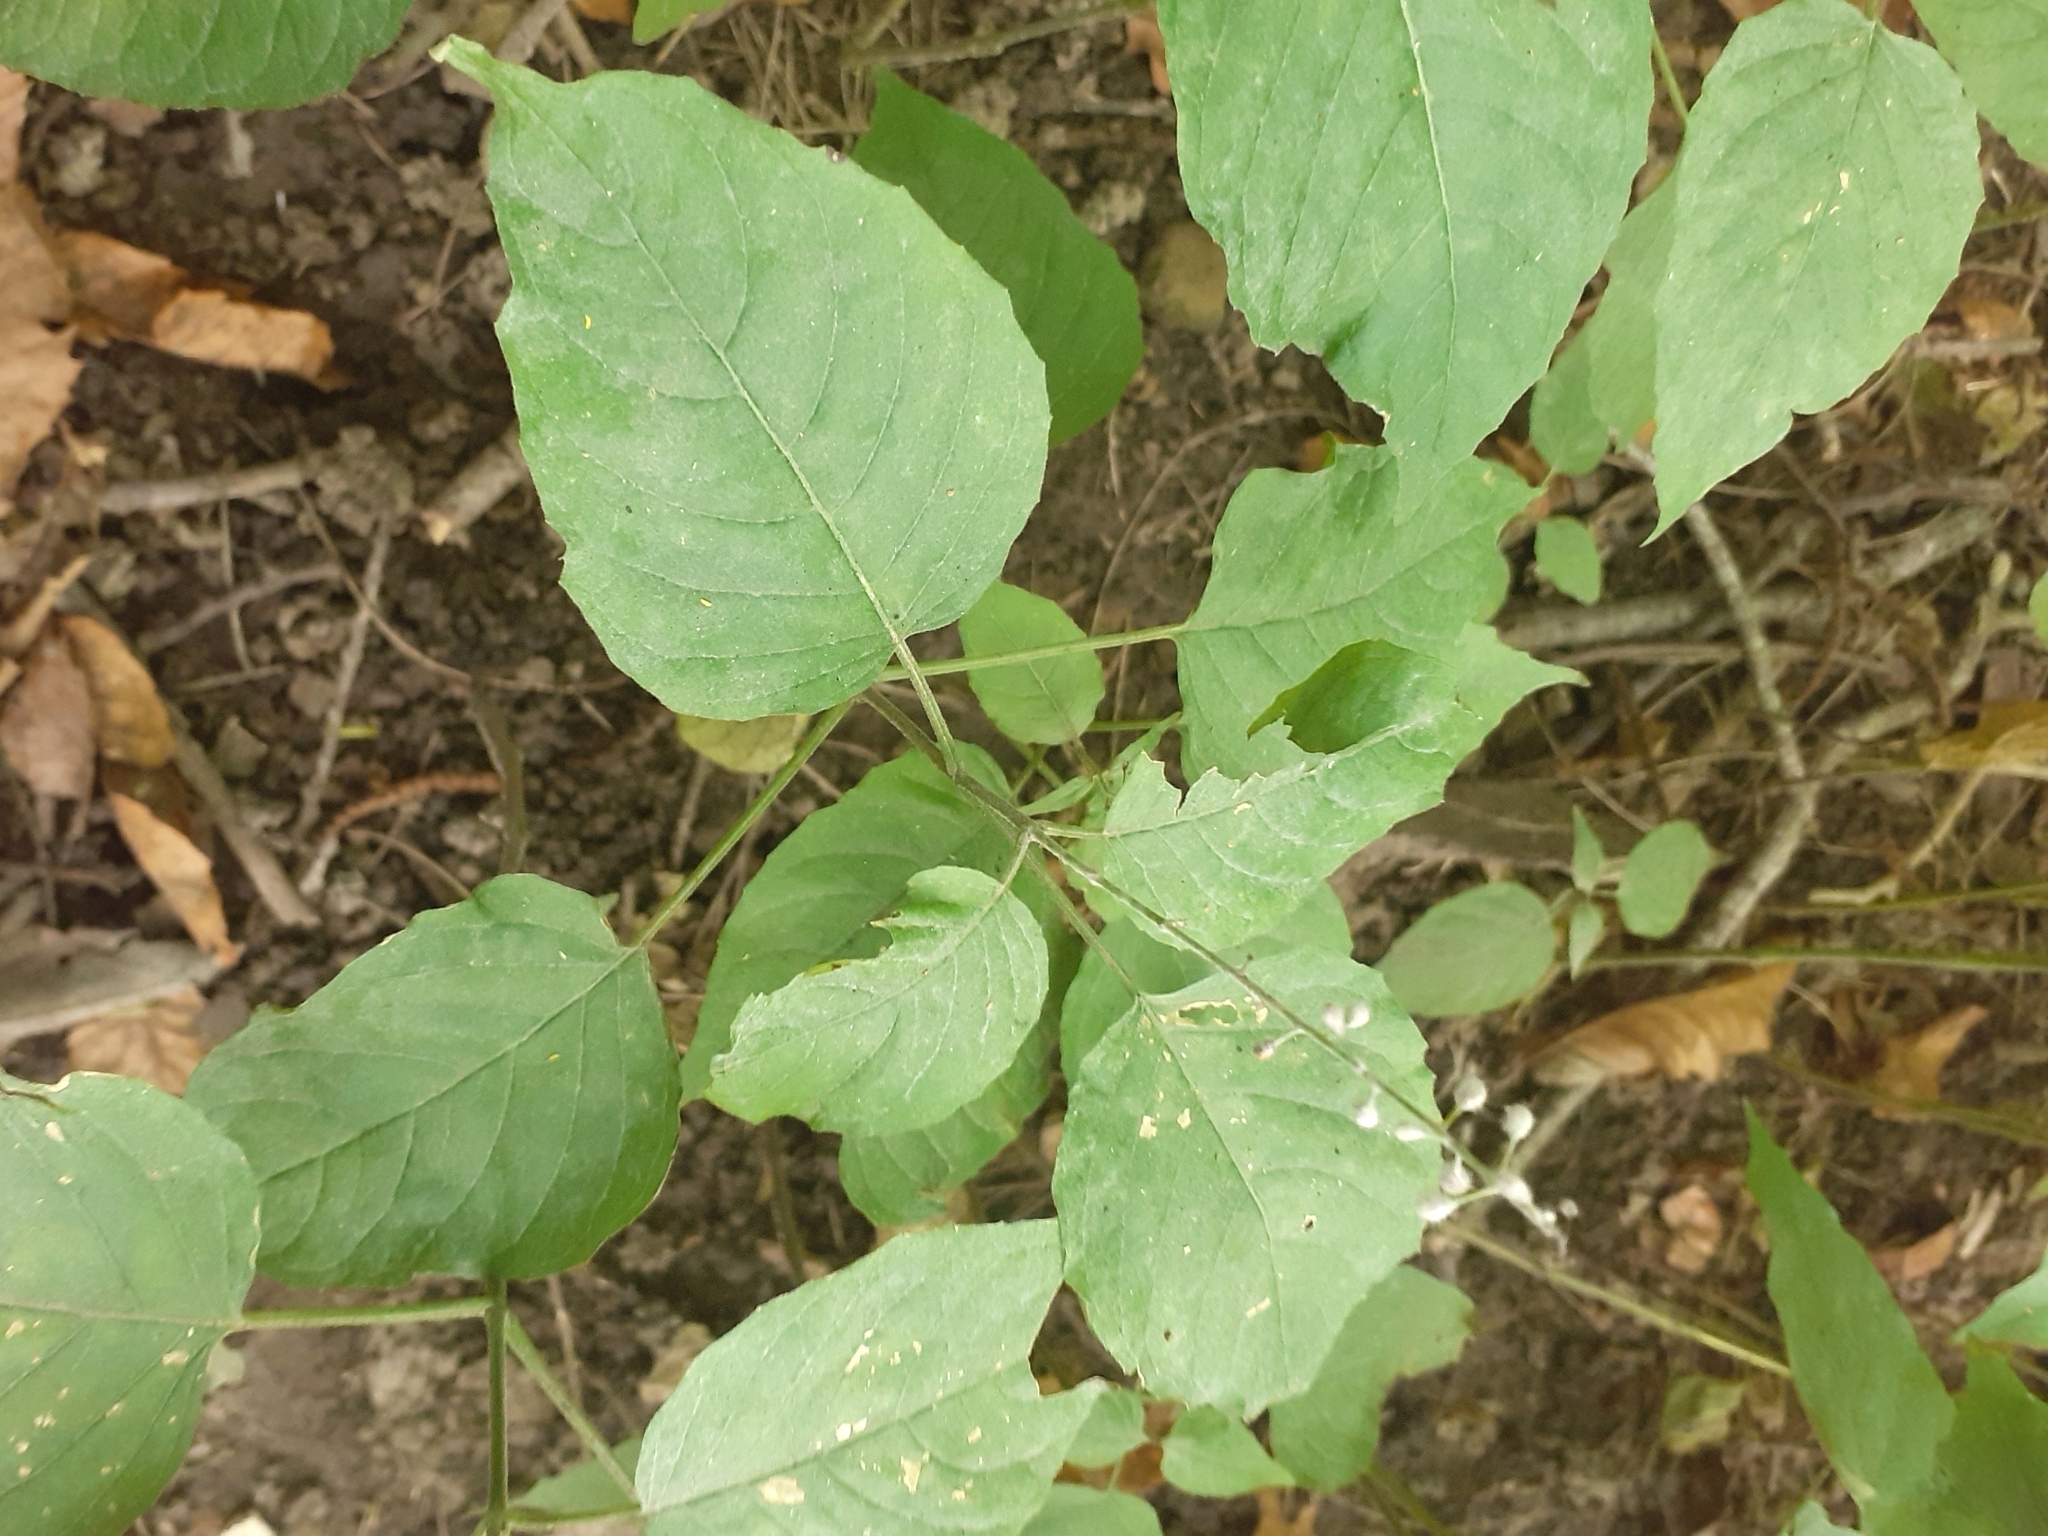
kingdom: Plantae
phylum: Tracheophyta
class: Magnoliopsida
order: Myrtales
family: Onagraceae
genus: Circaea
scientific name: Circaea lutetiana
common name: Enchanter's-nightshade
